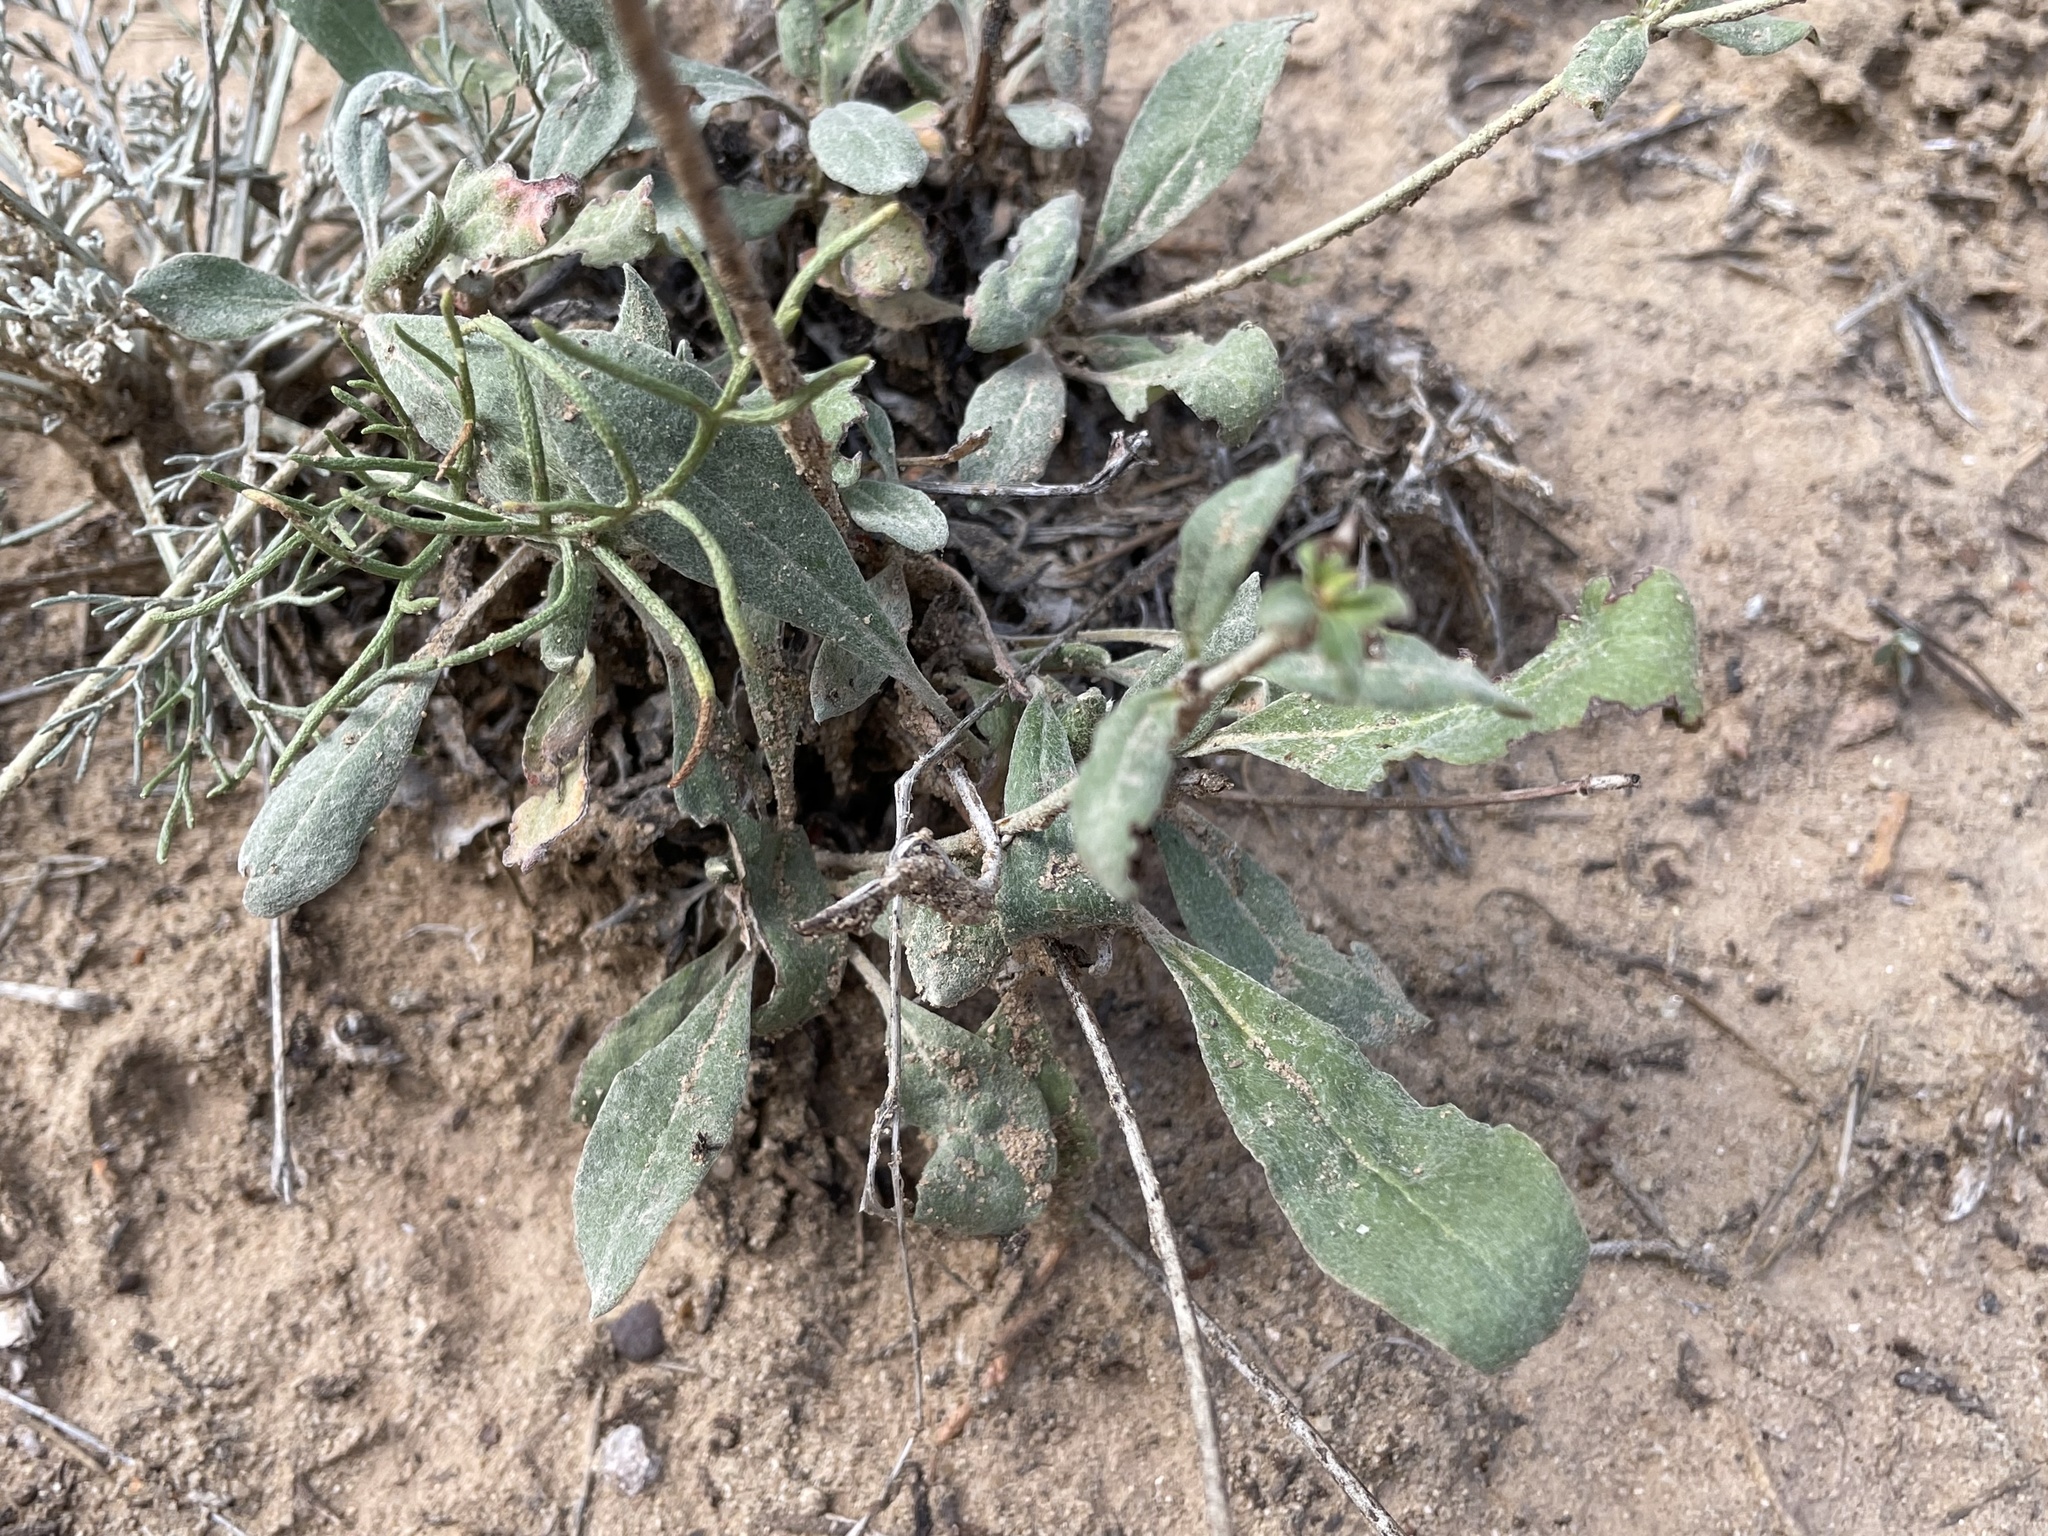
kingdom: Plantae
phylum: Tracheophyta
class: Magnoliopsida
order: Caryophyllales
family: Polygonaceae
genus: Eriogonum
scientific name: Eriogonum jamesii
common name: Antelope-sage
